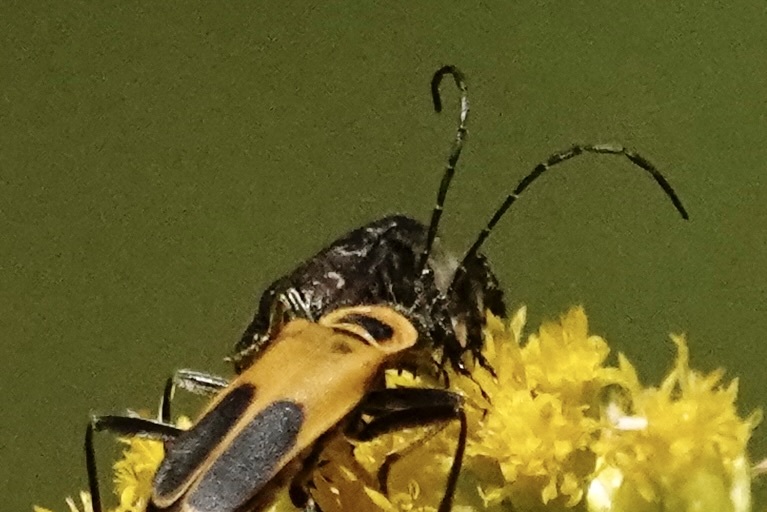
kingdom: Animalia
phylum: Arthropoda
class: Insecta
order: Coleoptera
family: Scarabaeidae
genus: Euphoria
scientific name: Euphoria sepulcralis
